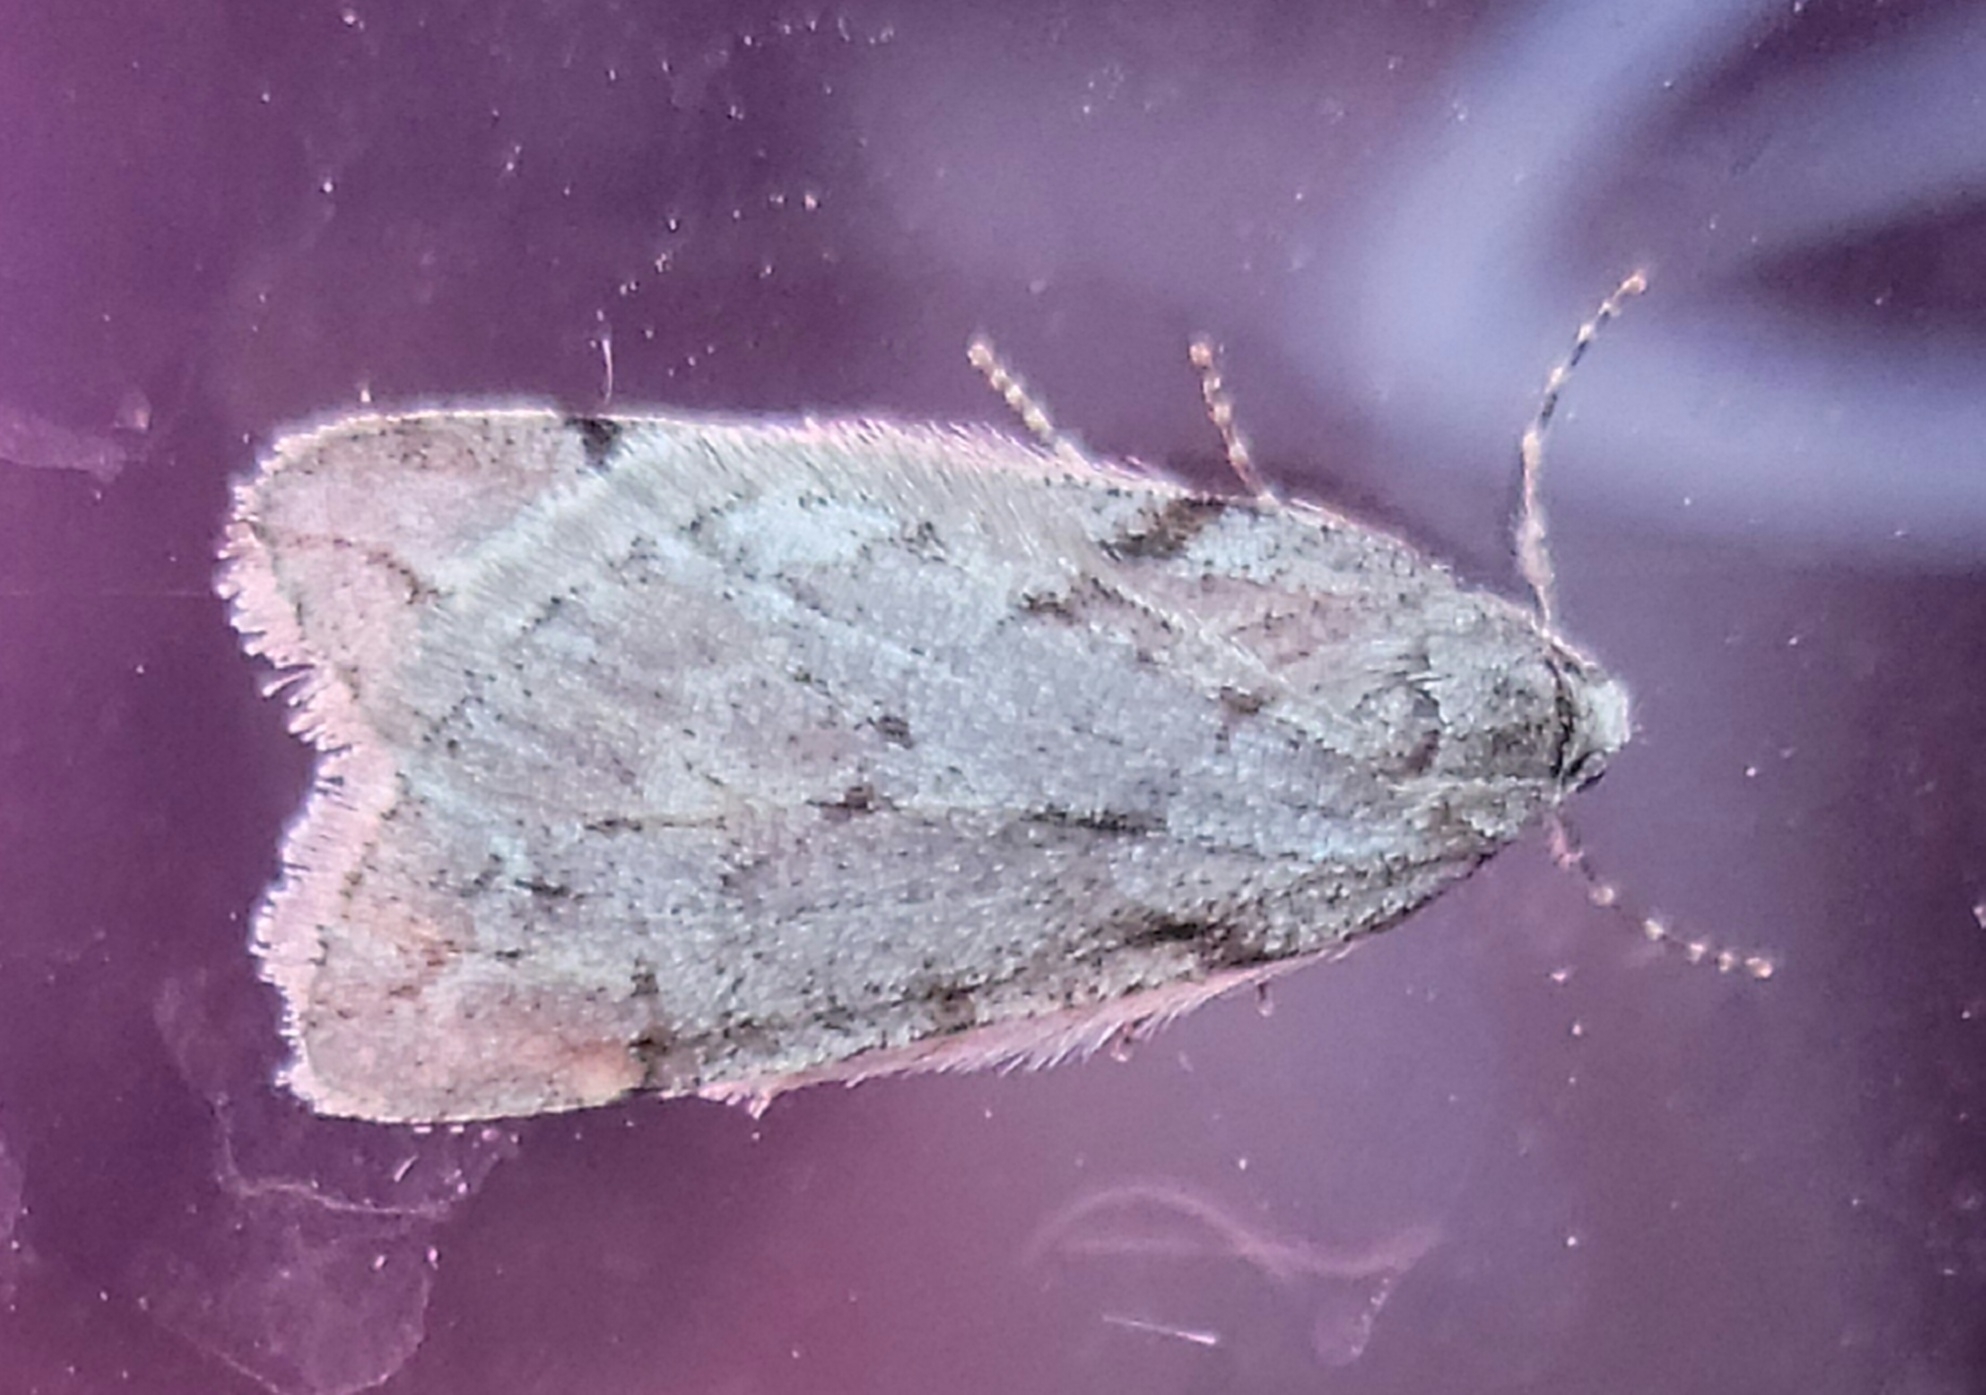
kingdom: Animalia
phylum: Arthropoda
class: Insecta
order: Lepidoptera
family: Geometridae
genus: Paleacrita
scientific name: Paleacrita vernata
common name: Spring cankerworm
